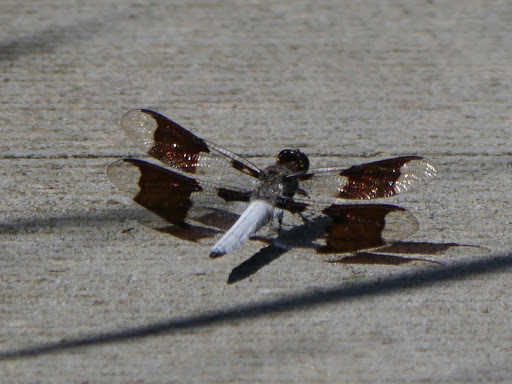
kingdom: Animalia
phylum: Arthropoda
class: Insecta
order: Odonata
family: Libellulidae
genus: Plathemis
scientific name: Plathemis lydia
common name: Common whitetail
